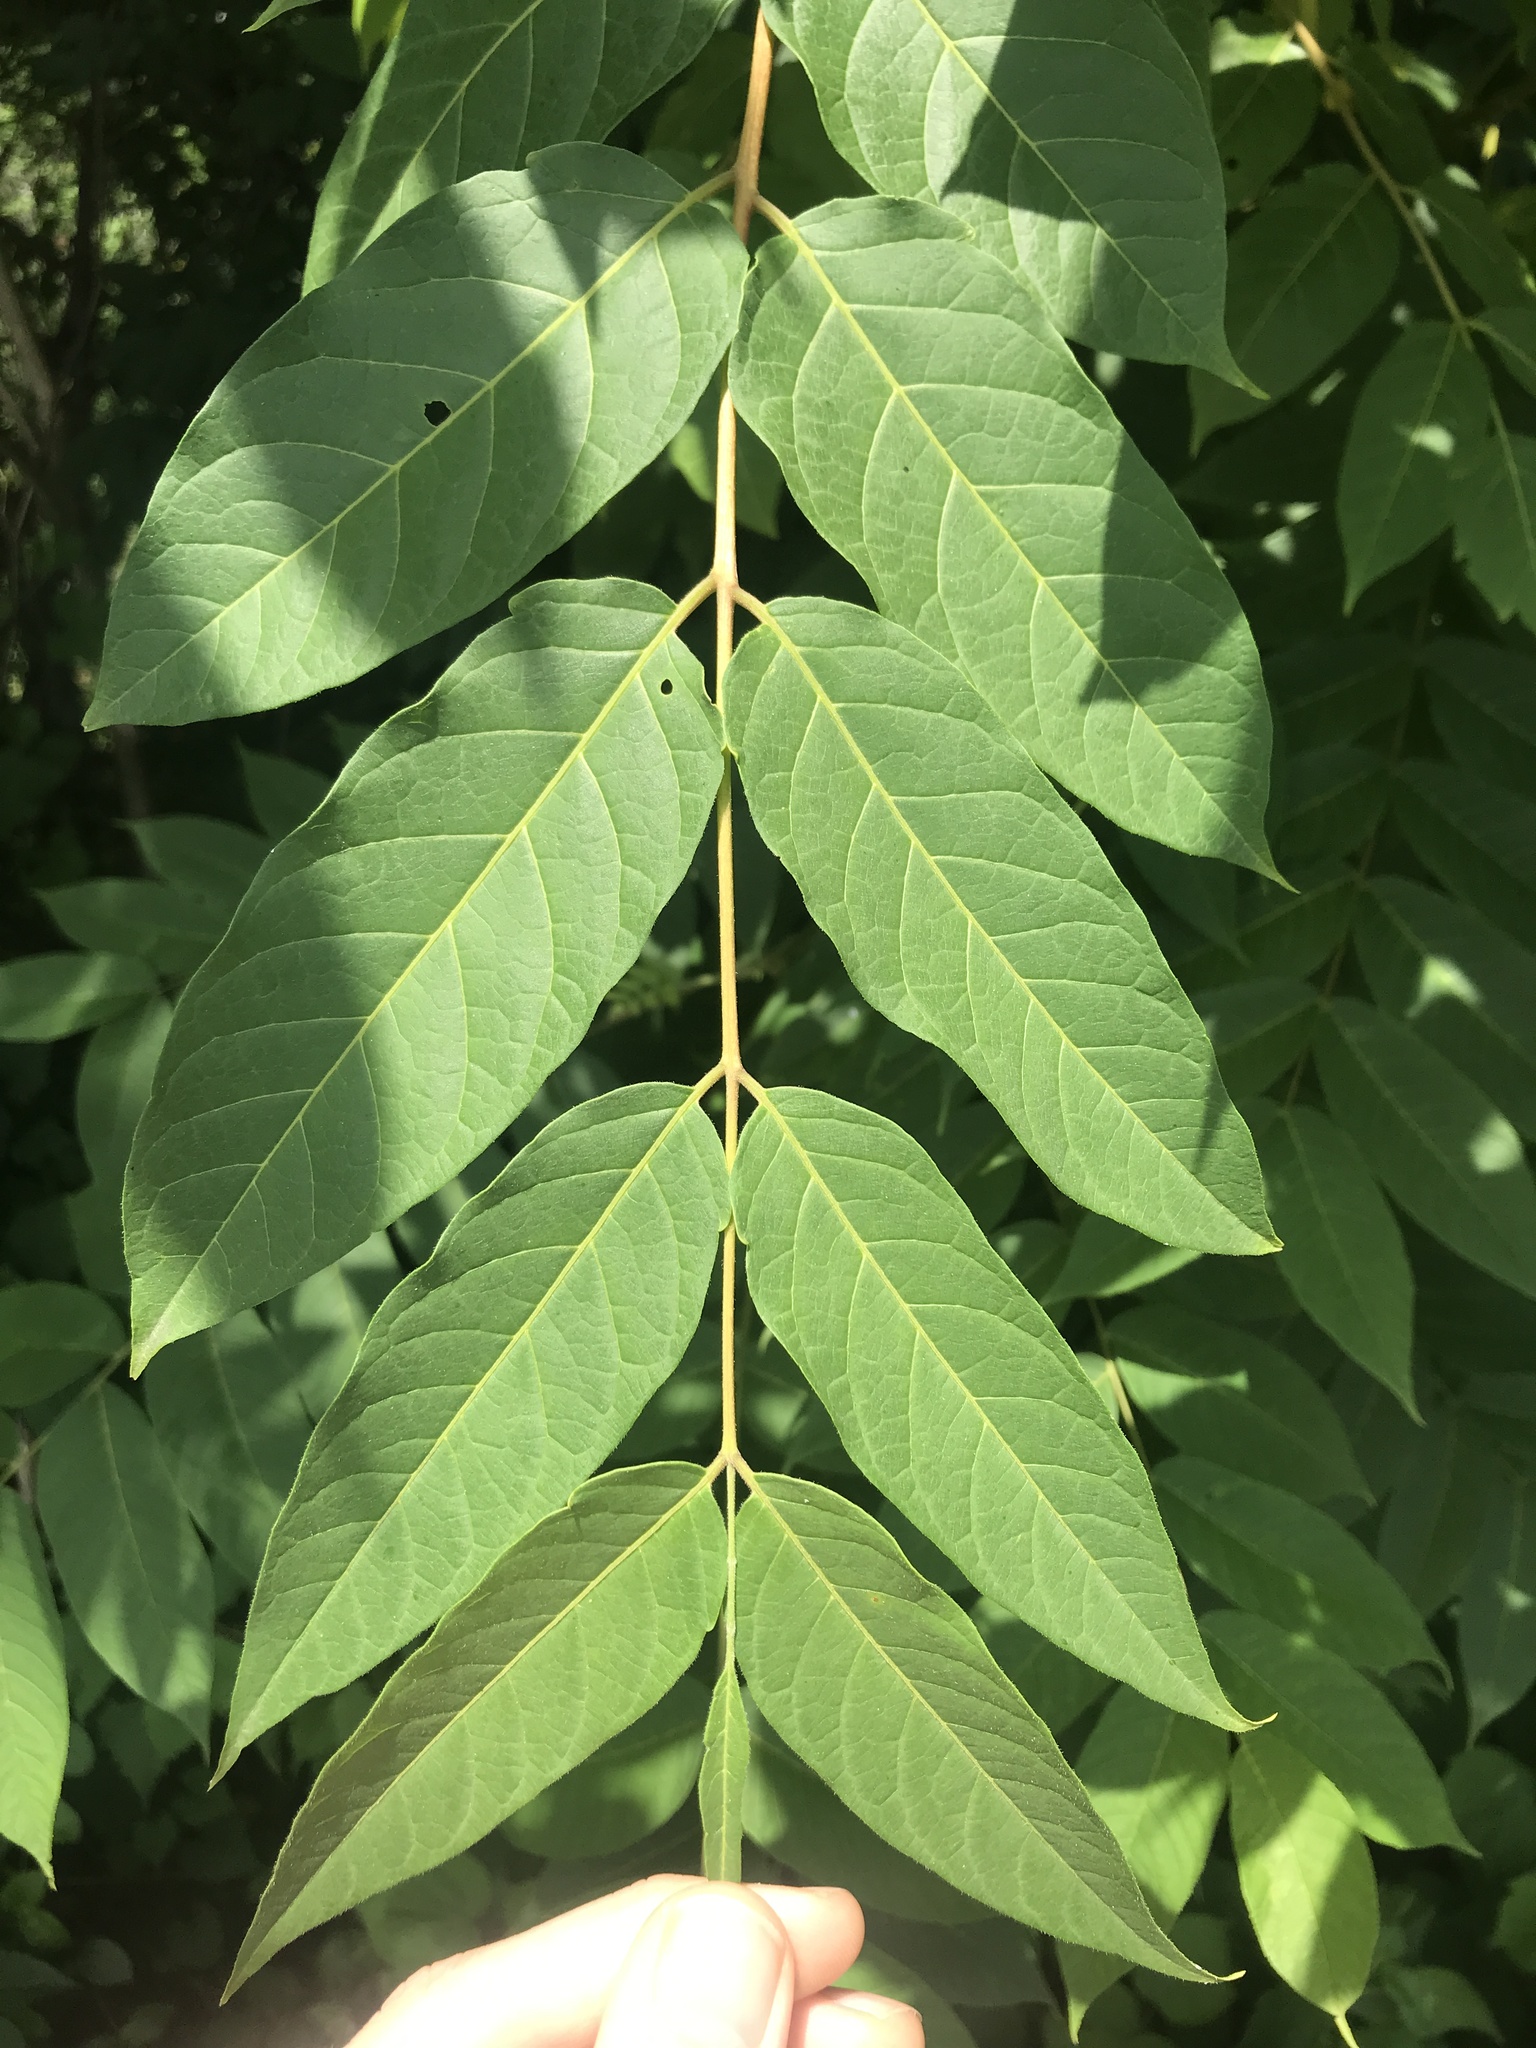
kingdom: Plantae
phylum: Tracheophyta
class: Magnoliopsida
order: Sapindales
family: Simaroubaceae
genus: Ailanthus
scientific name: Ailanthus altissima
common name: Tree-of-heaven
